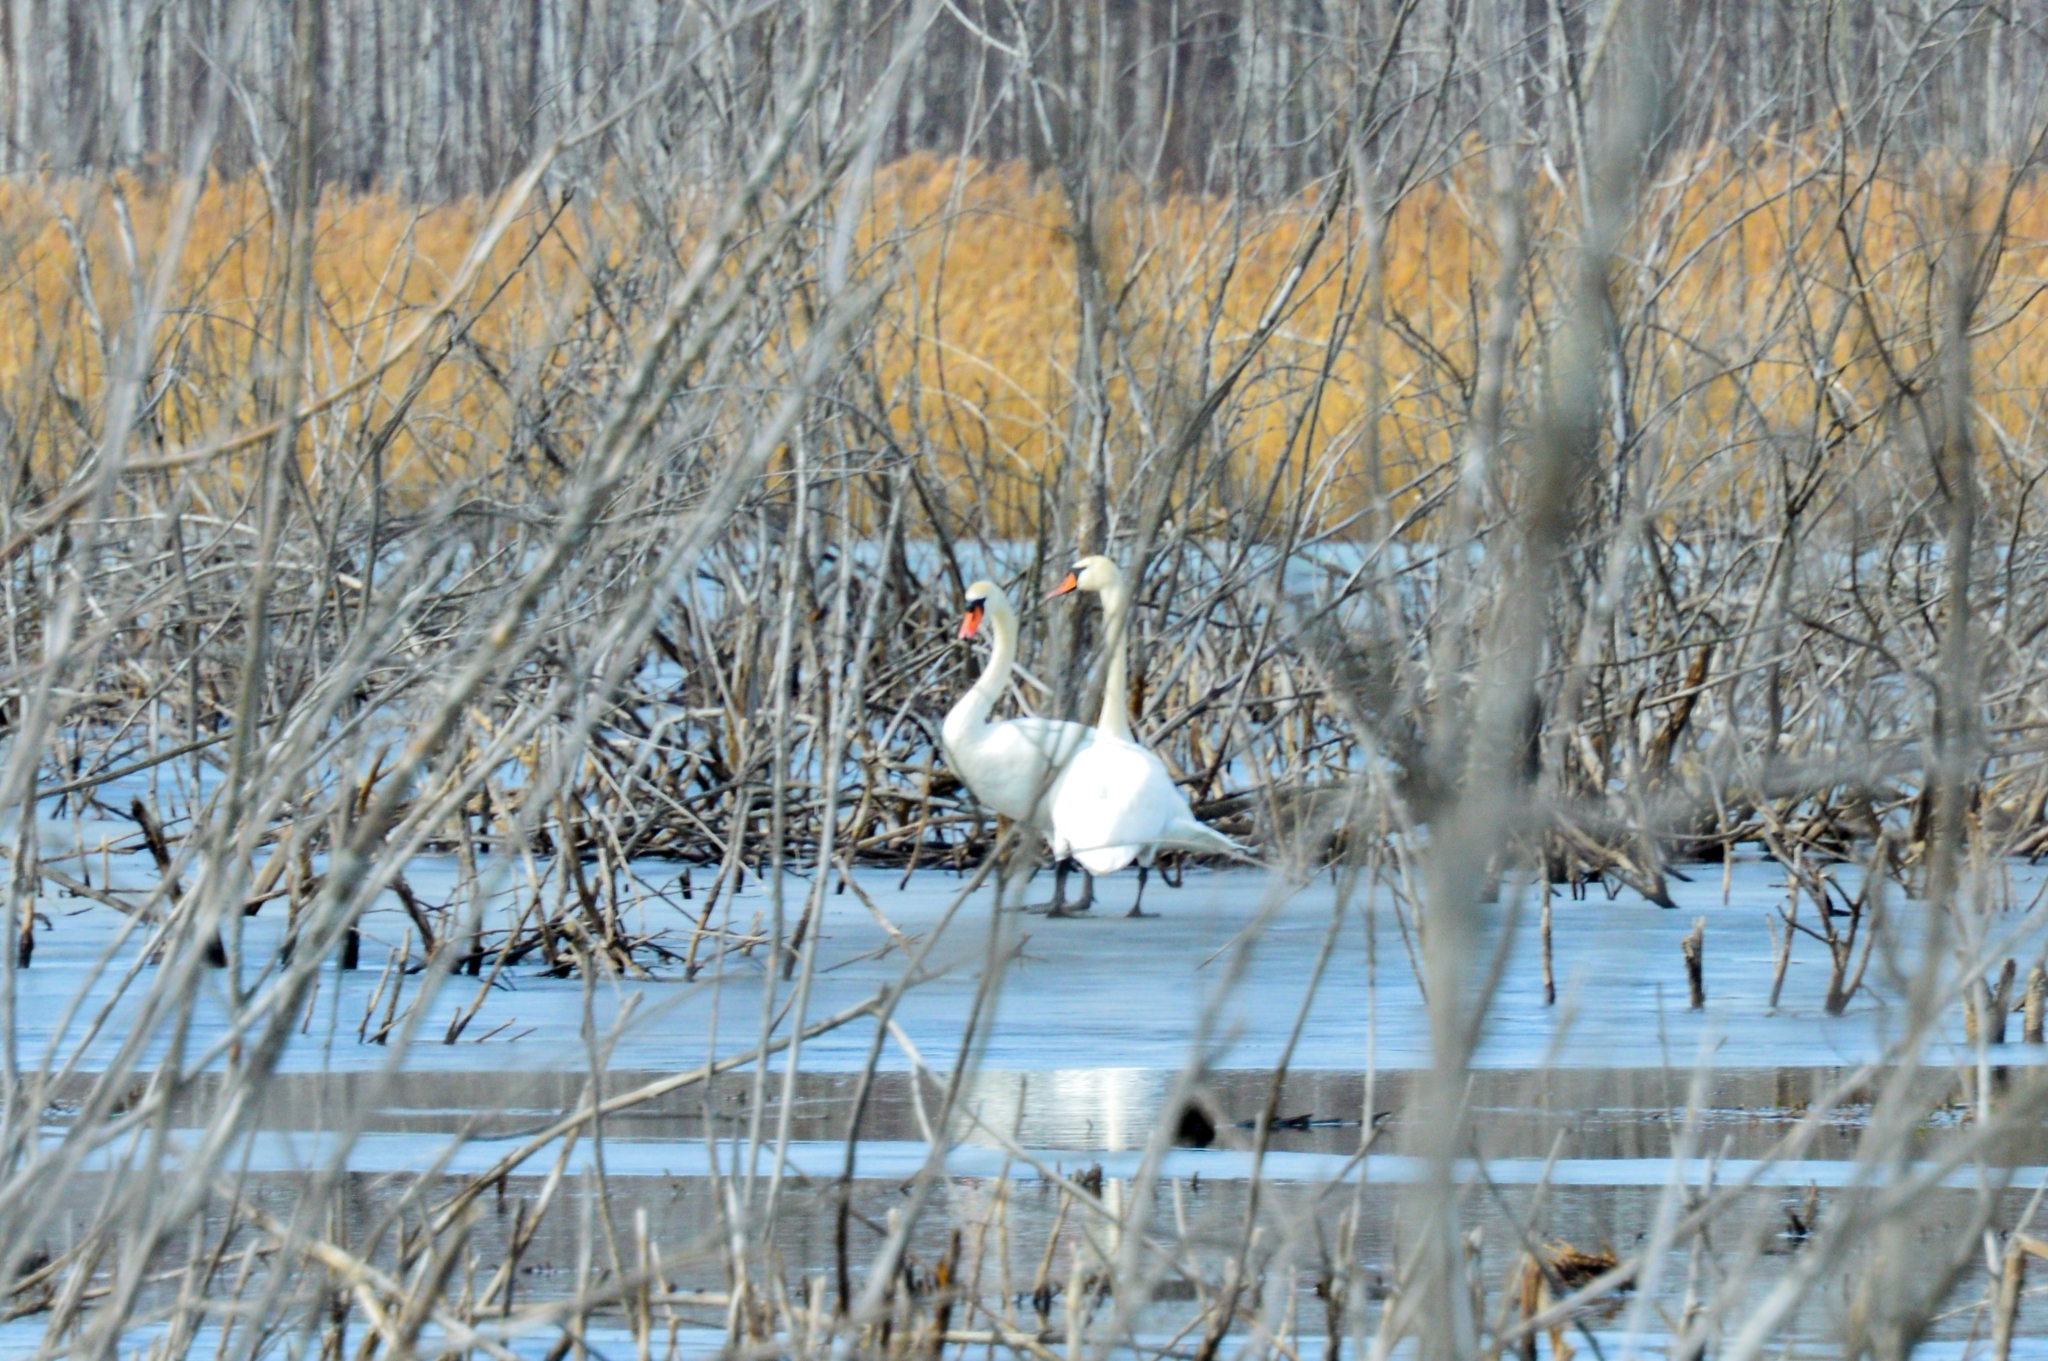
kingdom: Animalia
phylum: Chordata
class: Aves
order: Anseriformes
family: Anatidae
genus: Cygnus
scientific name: Cygnus olor
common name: Mute swan
